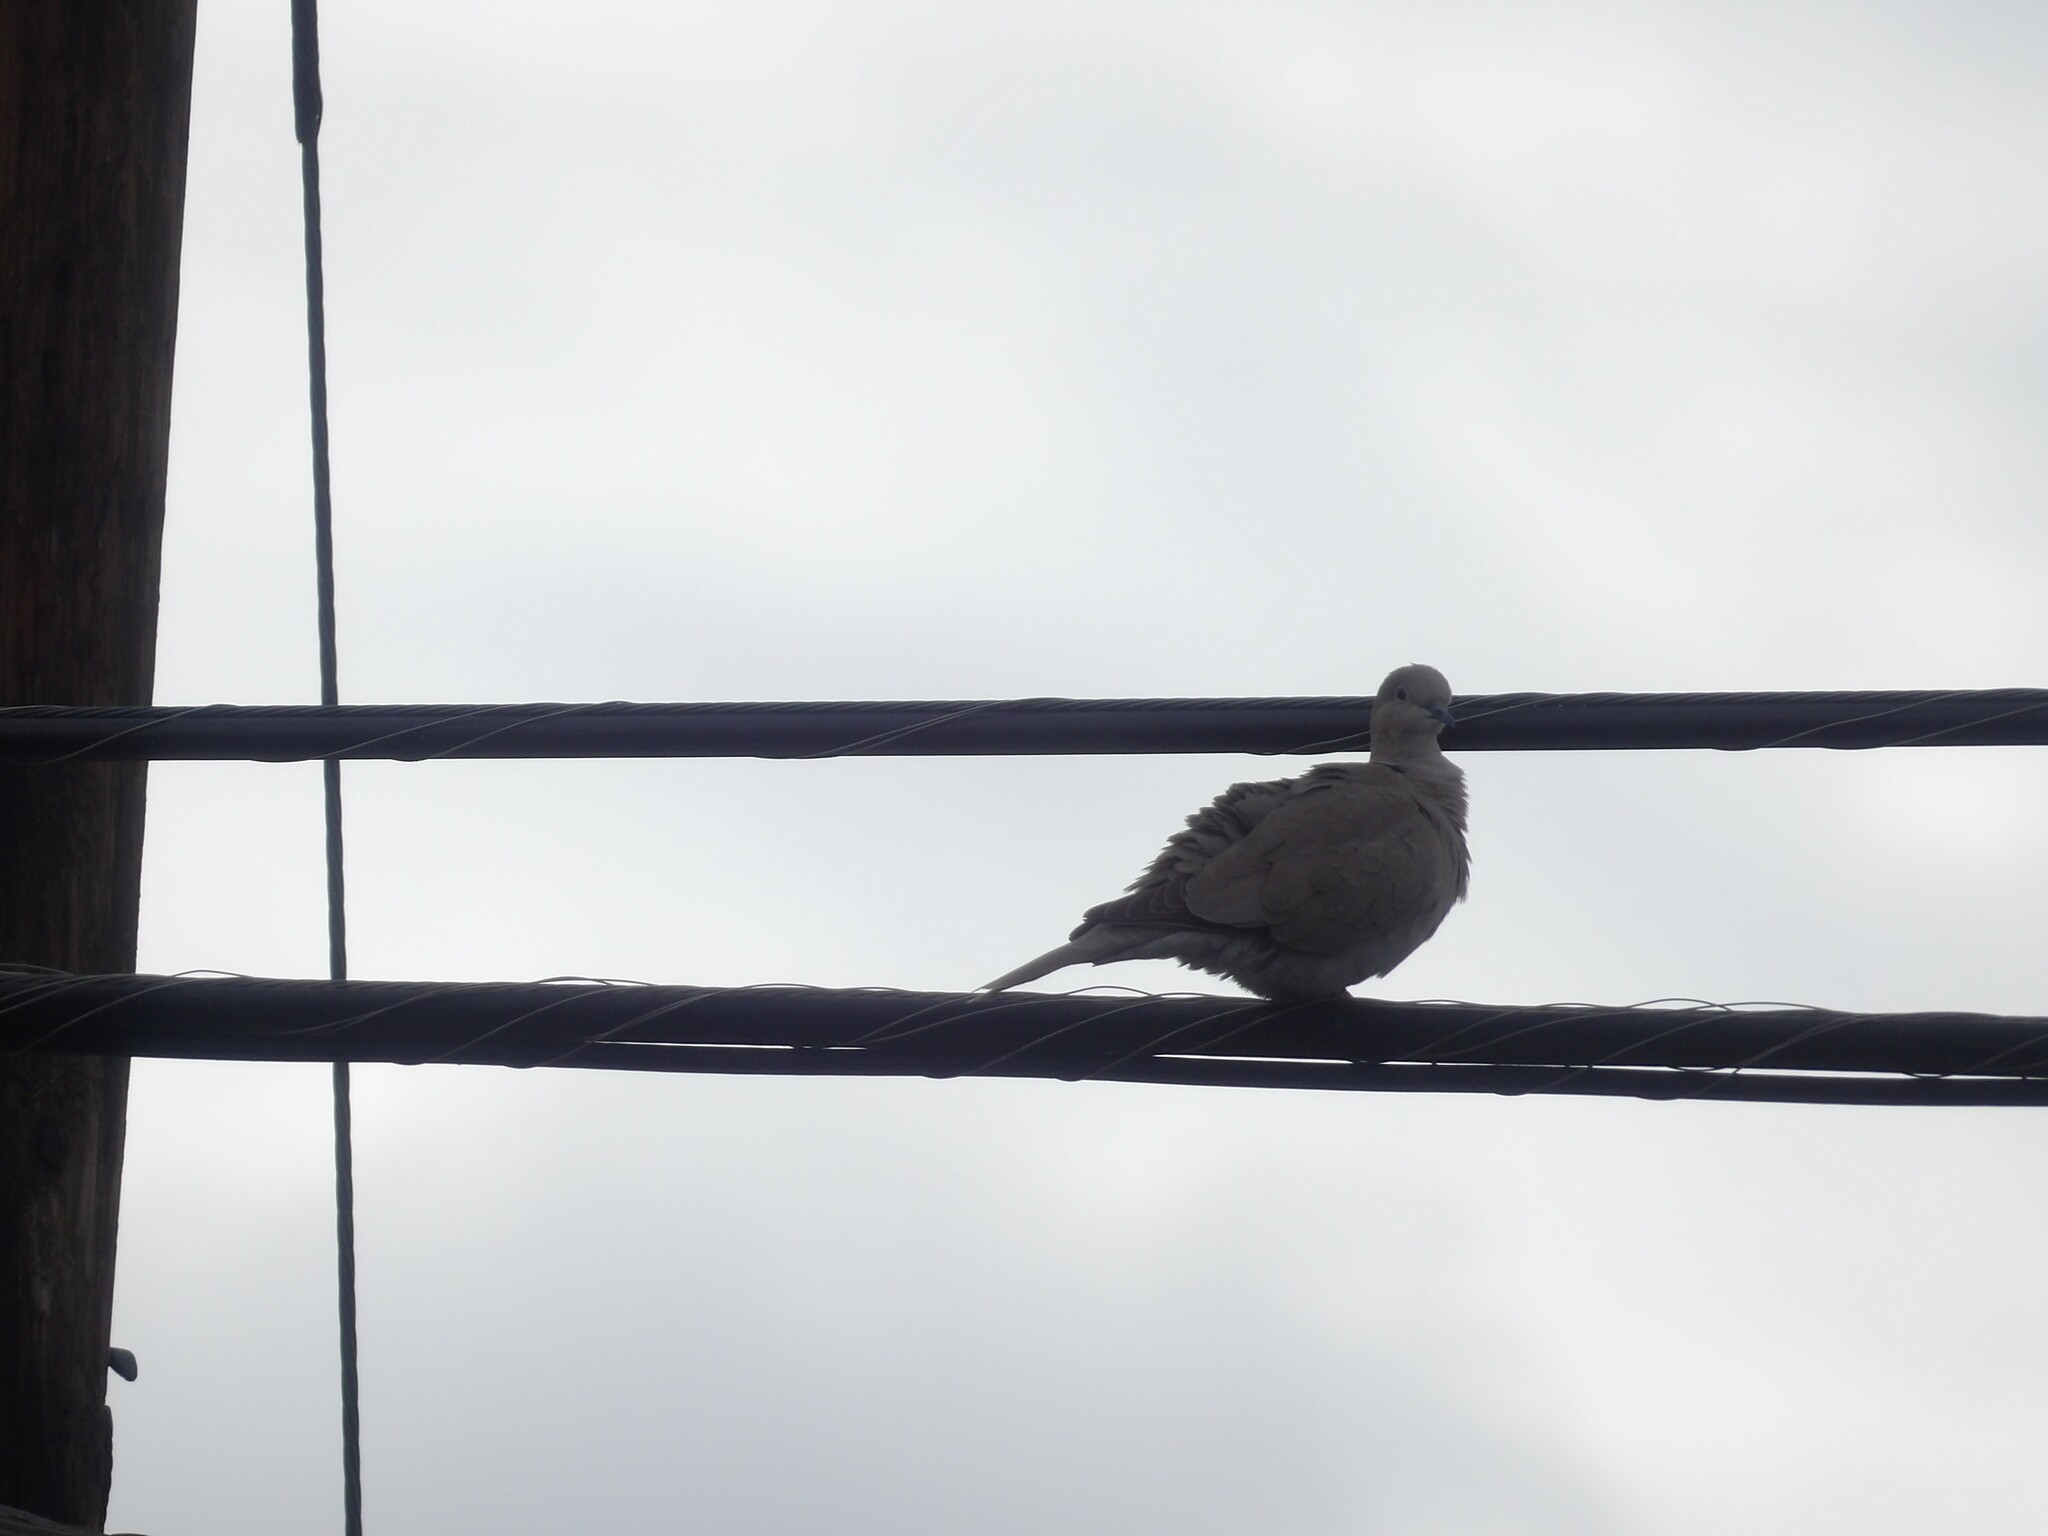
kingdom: Animalia
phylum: Chordata
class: Aves
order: Columbiformes
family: Columbidae
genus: Streptopelia
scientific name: Streptopelia decaocto
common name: Eurasian collared dove
